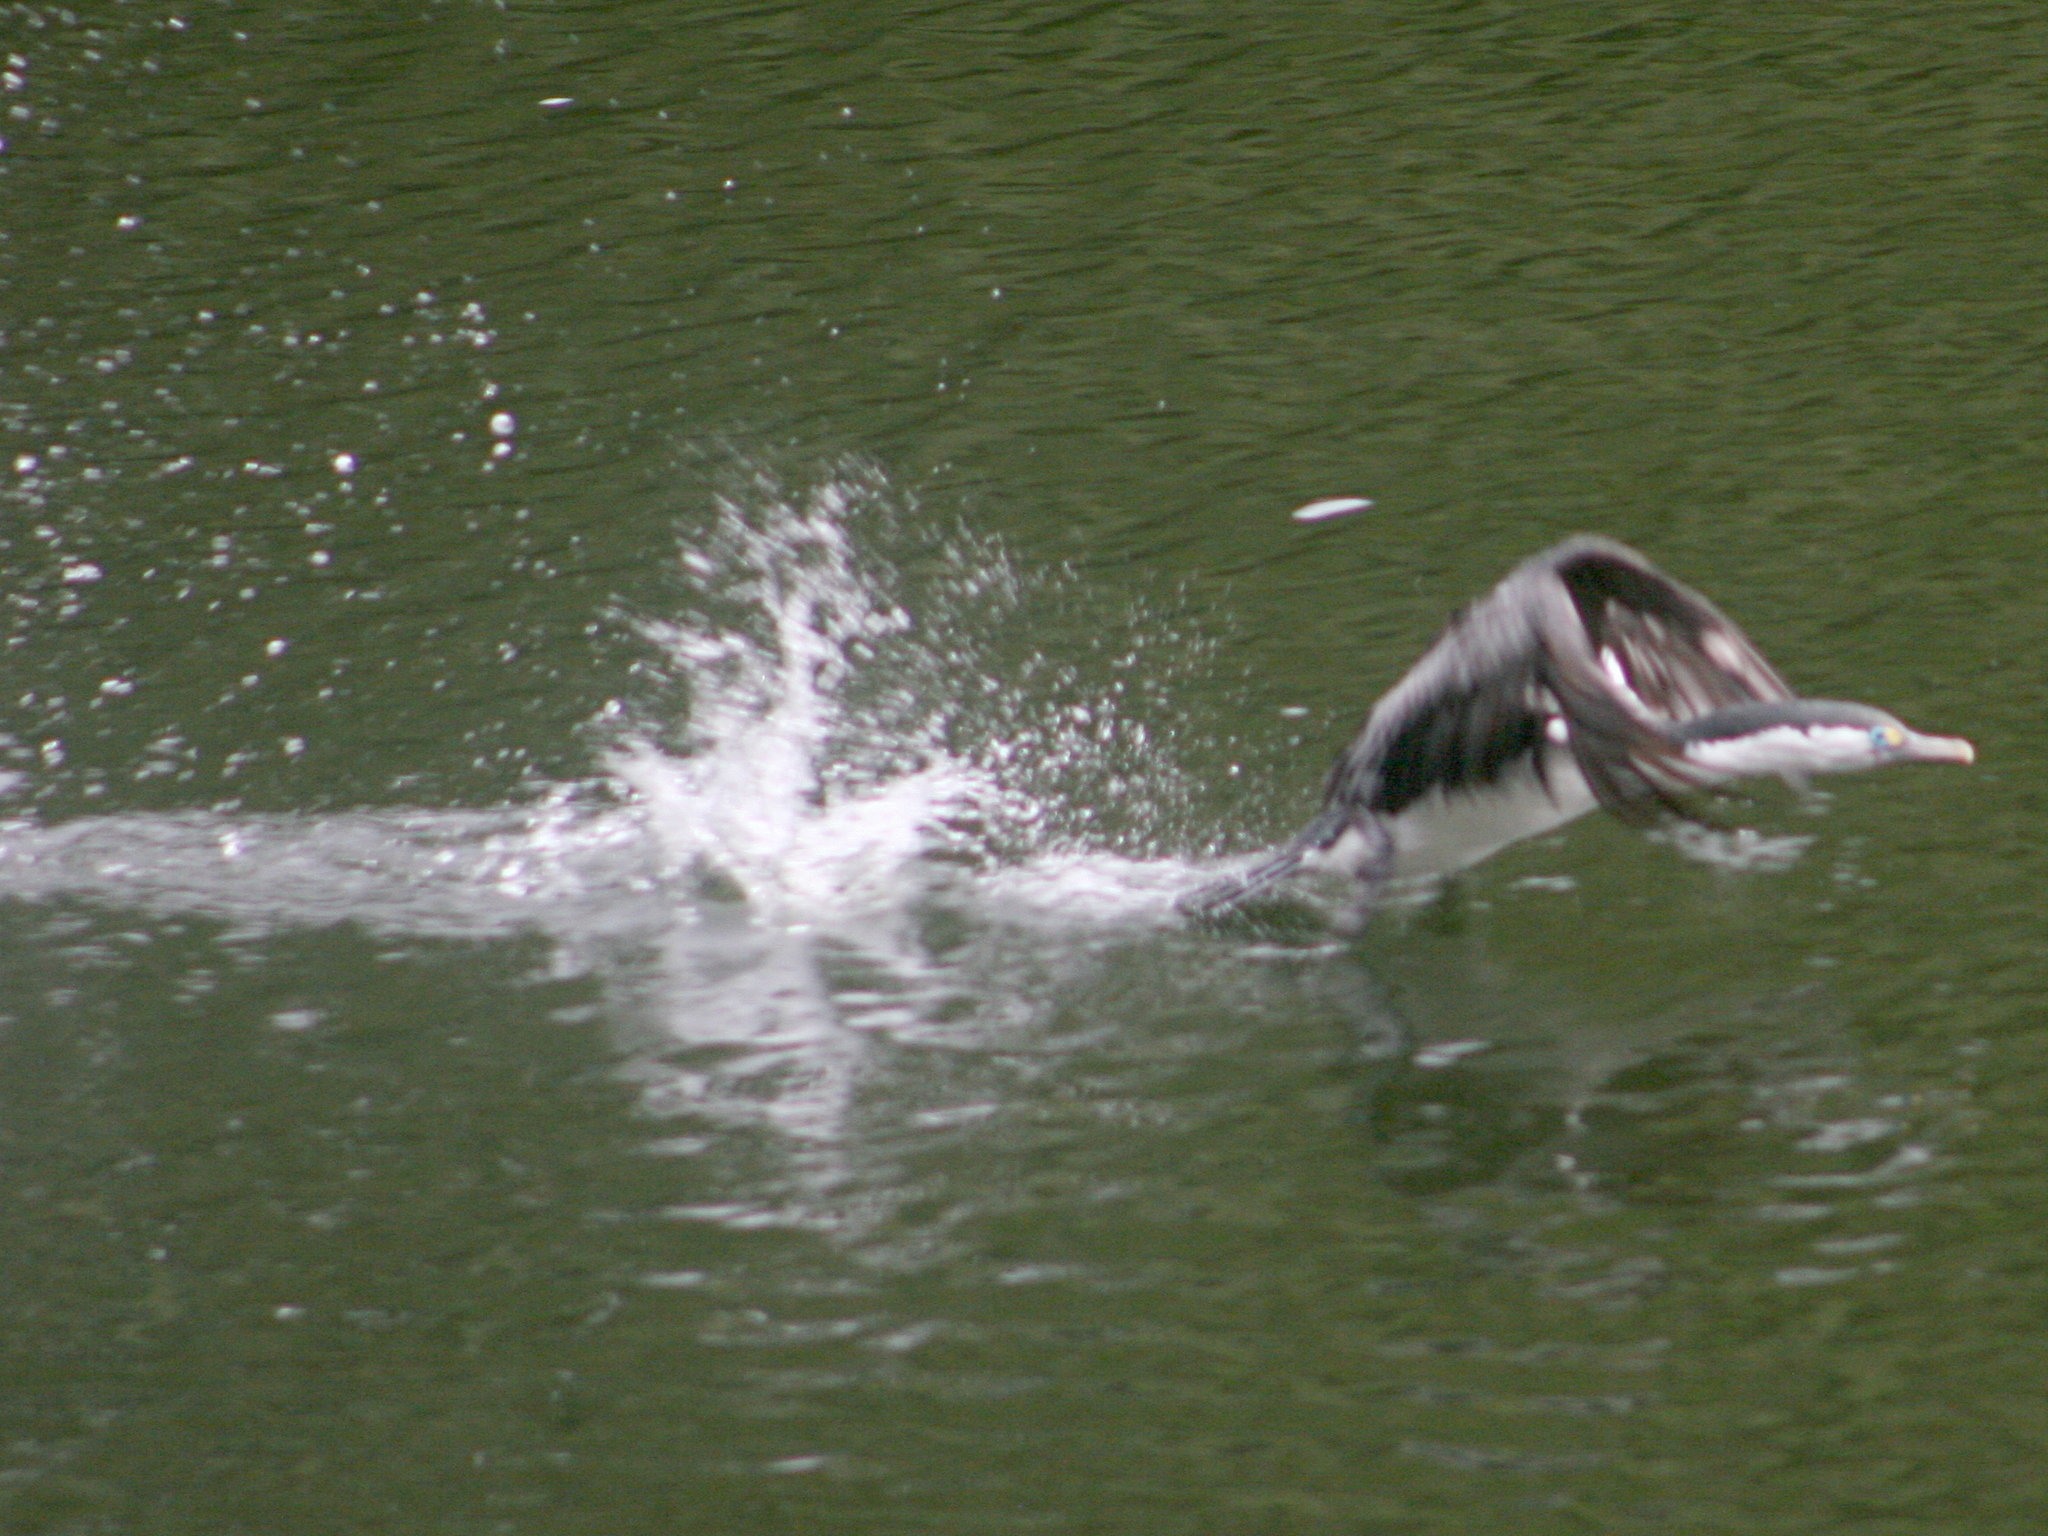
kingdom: Animalia
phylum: Chordata
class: Aves
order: Suliformes
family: Phalacrocoracidae
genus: Phalacrocorax
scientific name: Phalacrocorax varius
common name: Pied cormorant
